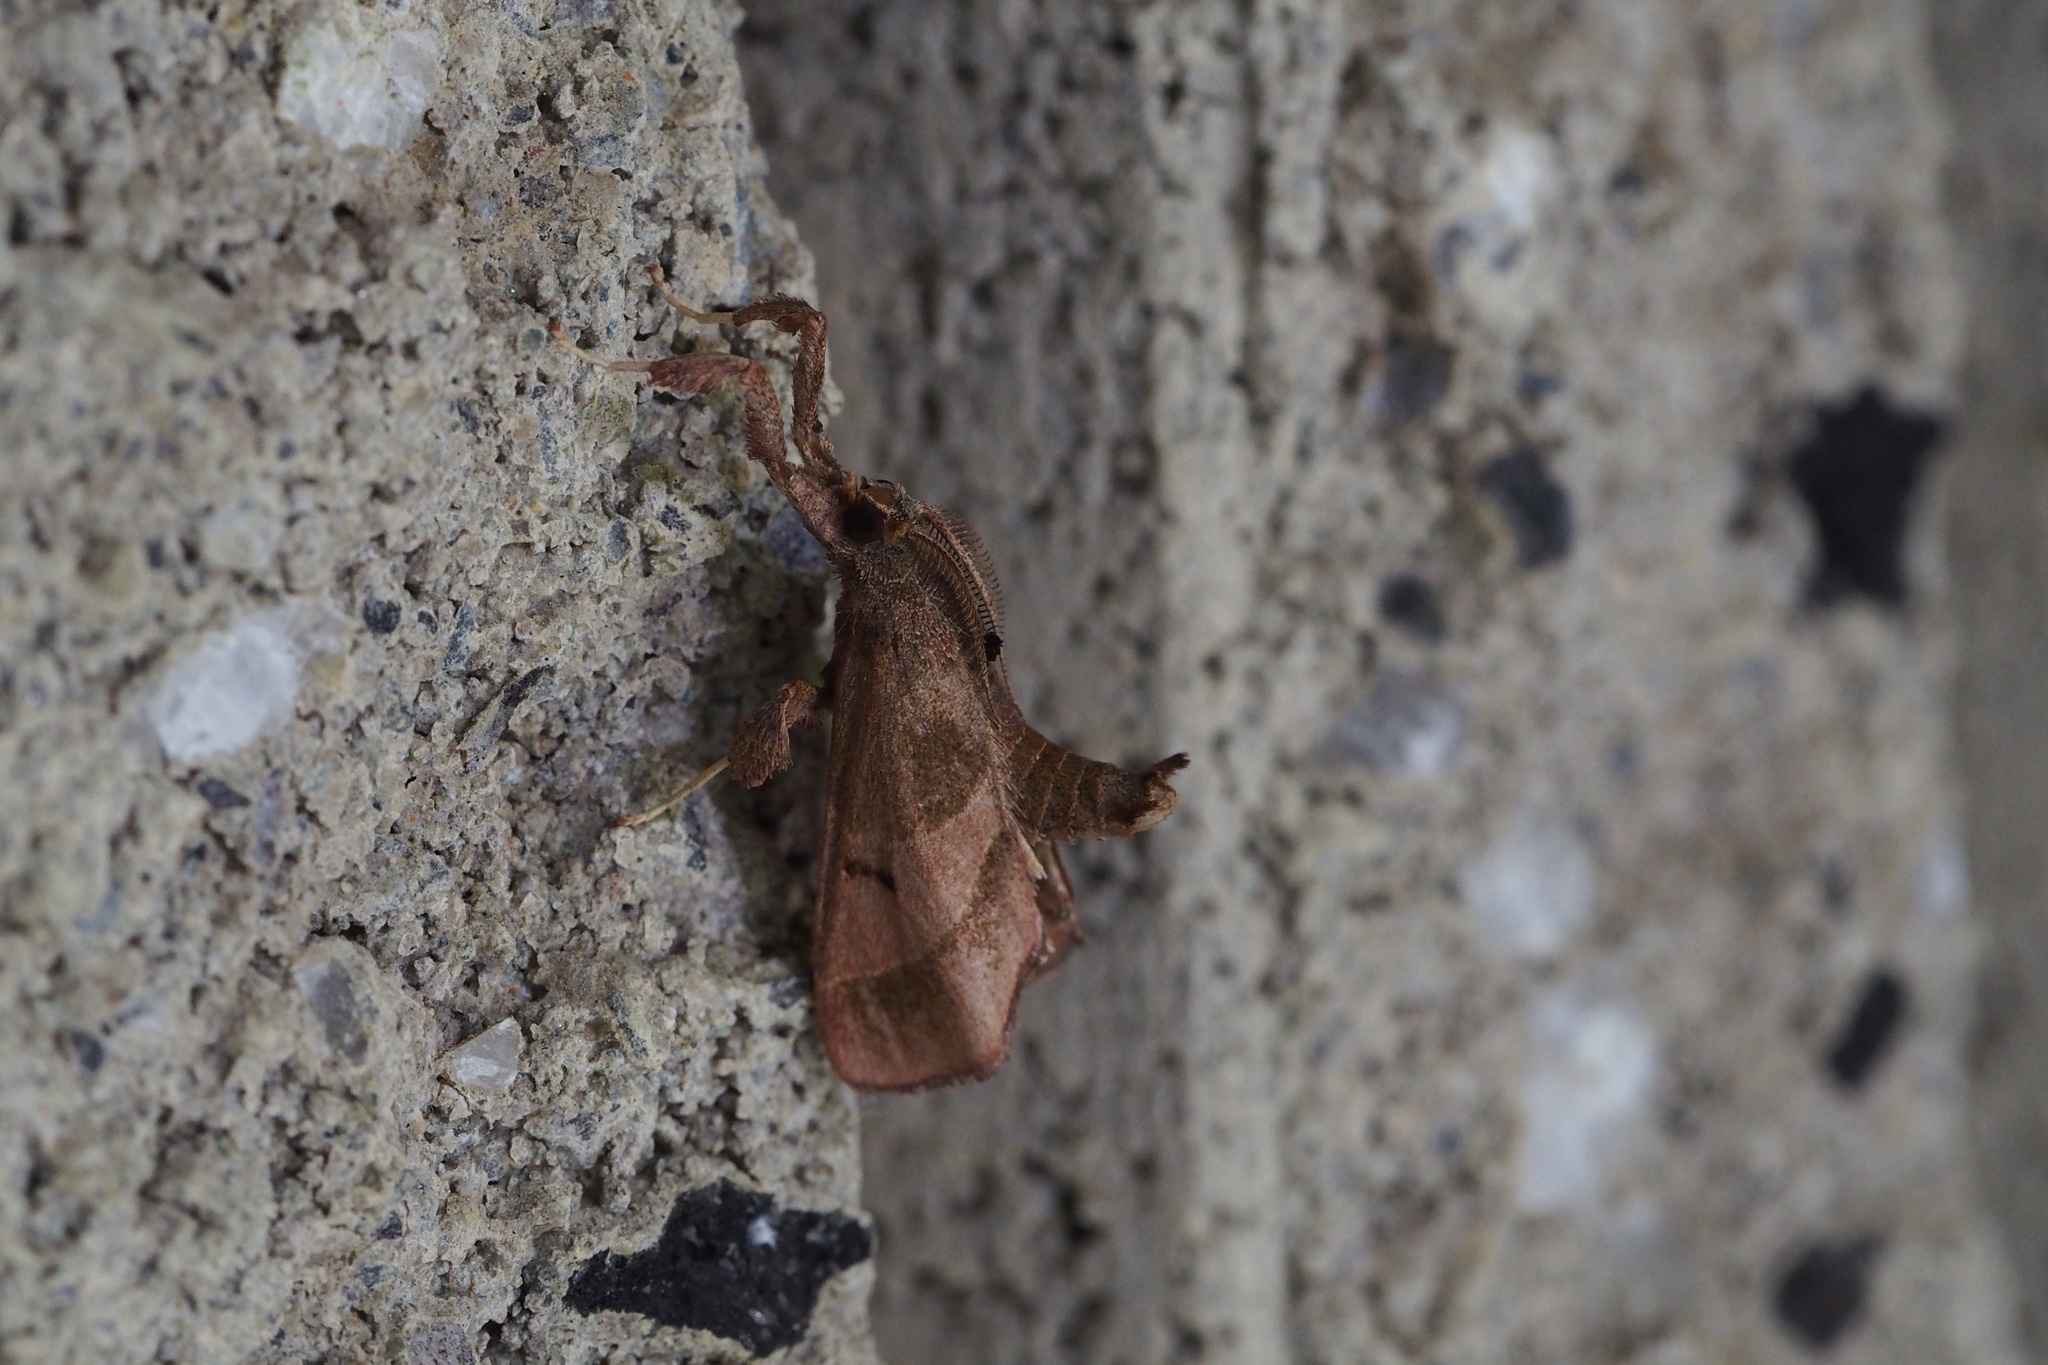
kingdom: Animalia
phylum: Arthropoda
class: Insecta
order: Lepidoptera
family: Pyralidae
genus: Sacada
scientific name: Sacada misakiensis
